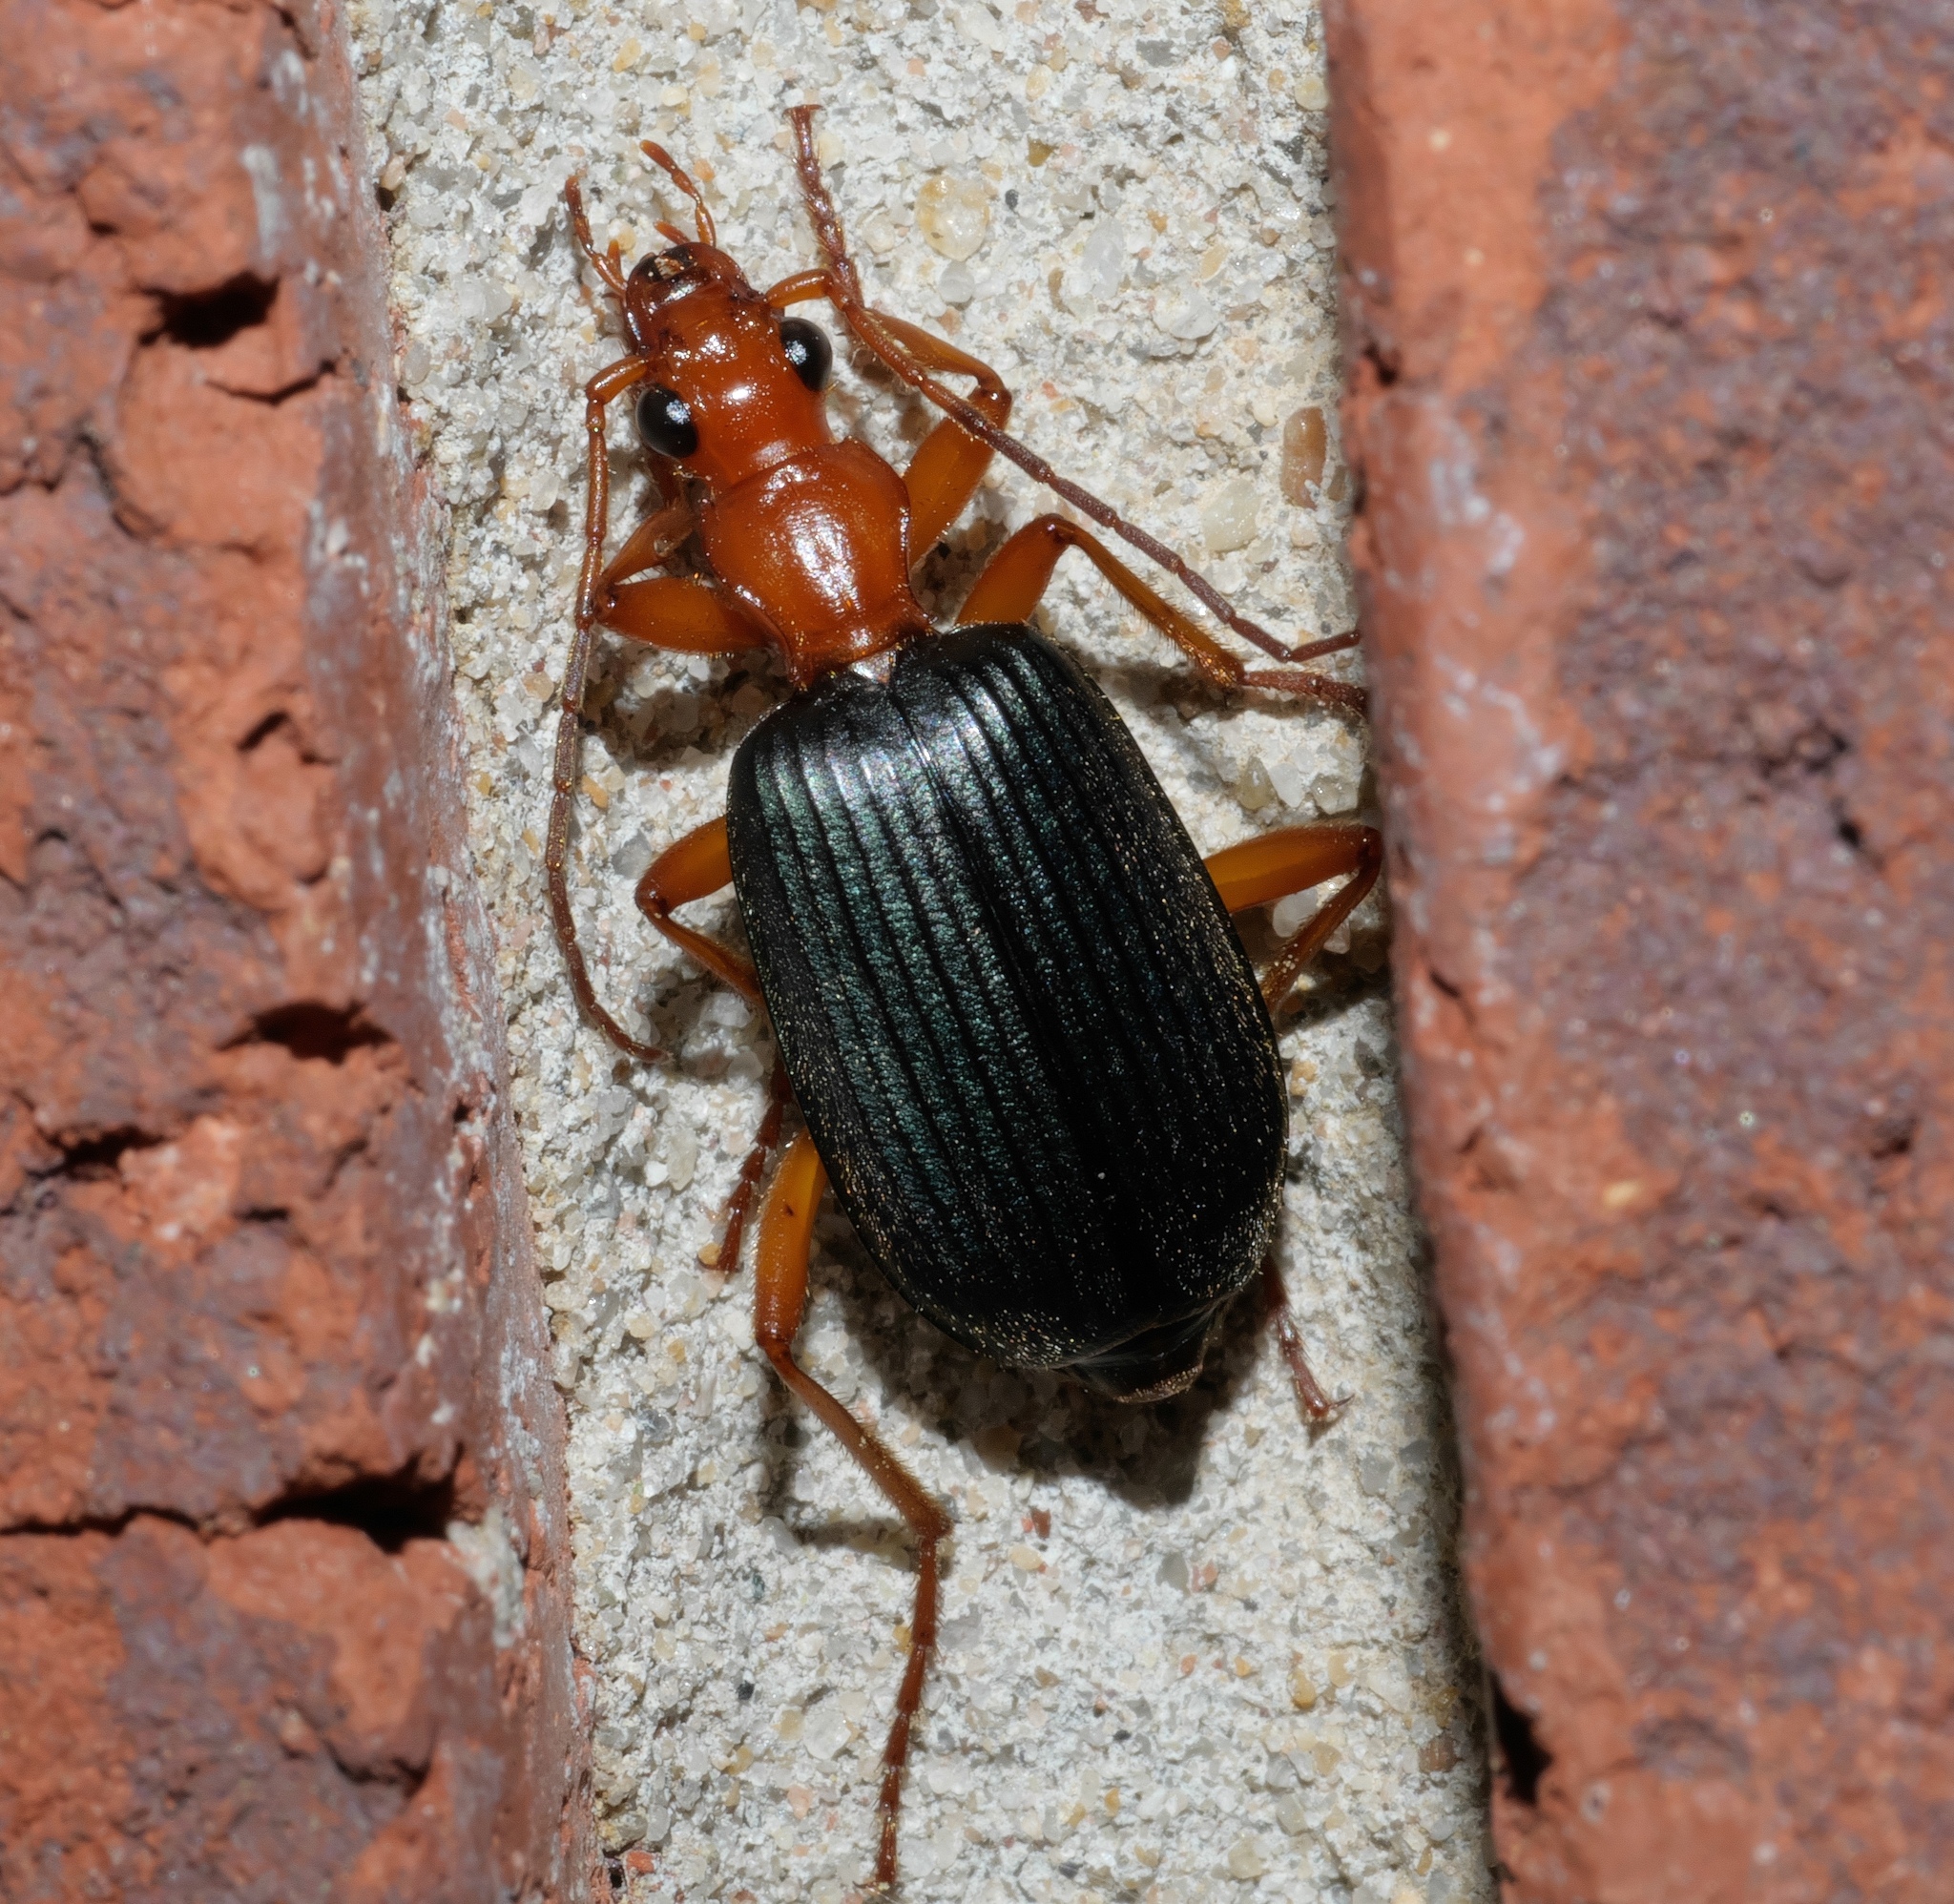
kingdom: Animalia
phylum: Arthropoda
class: Insecta
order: Coleoptera
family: Carabidae
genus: Brachinus
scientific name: Brachinus tenuicollis
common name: Narrow-necked little bombardier beetle
